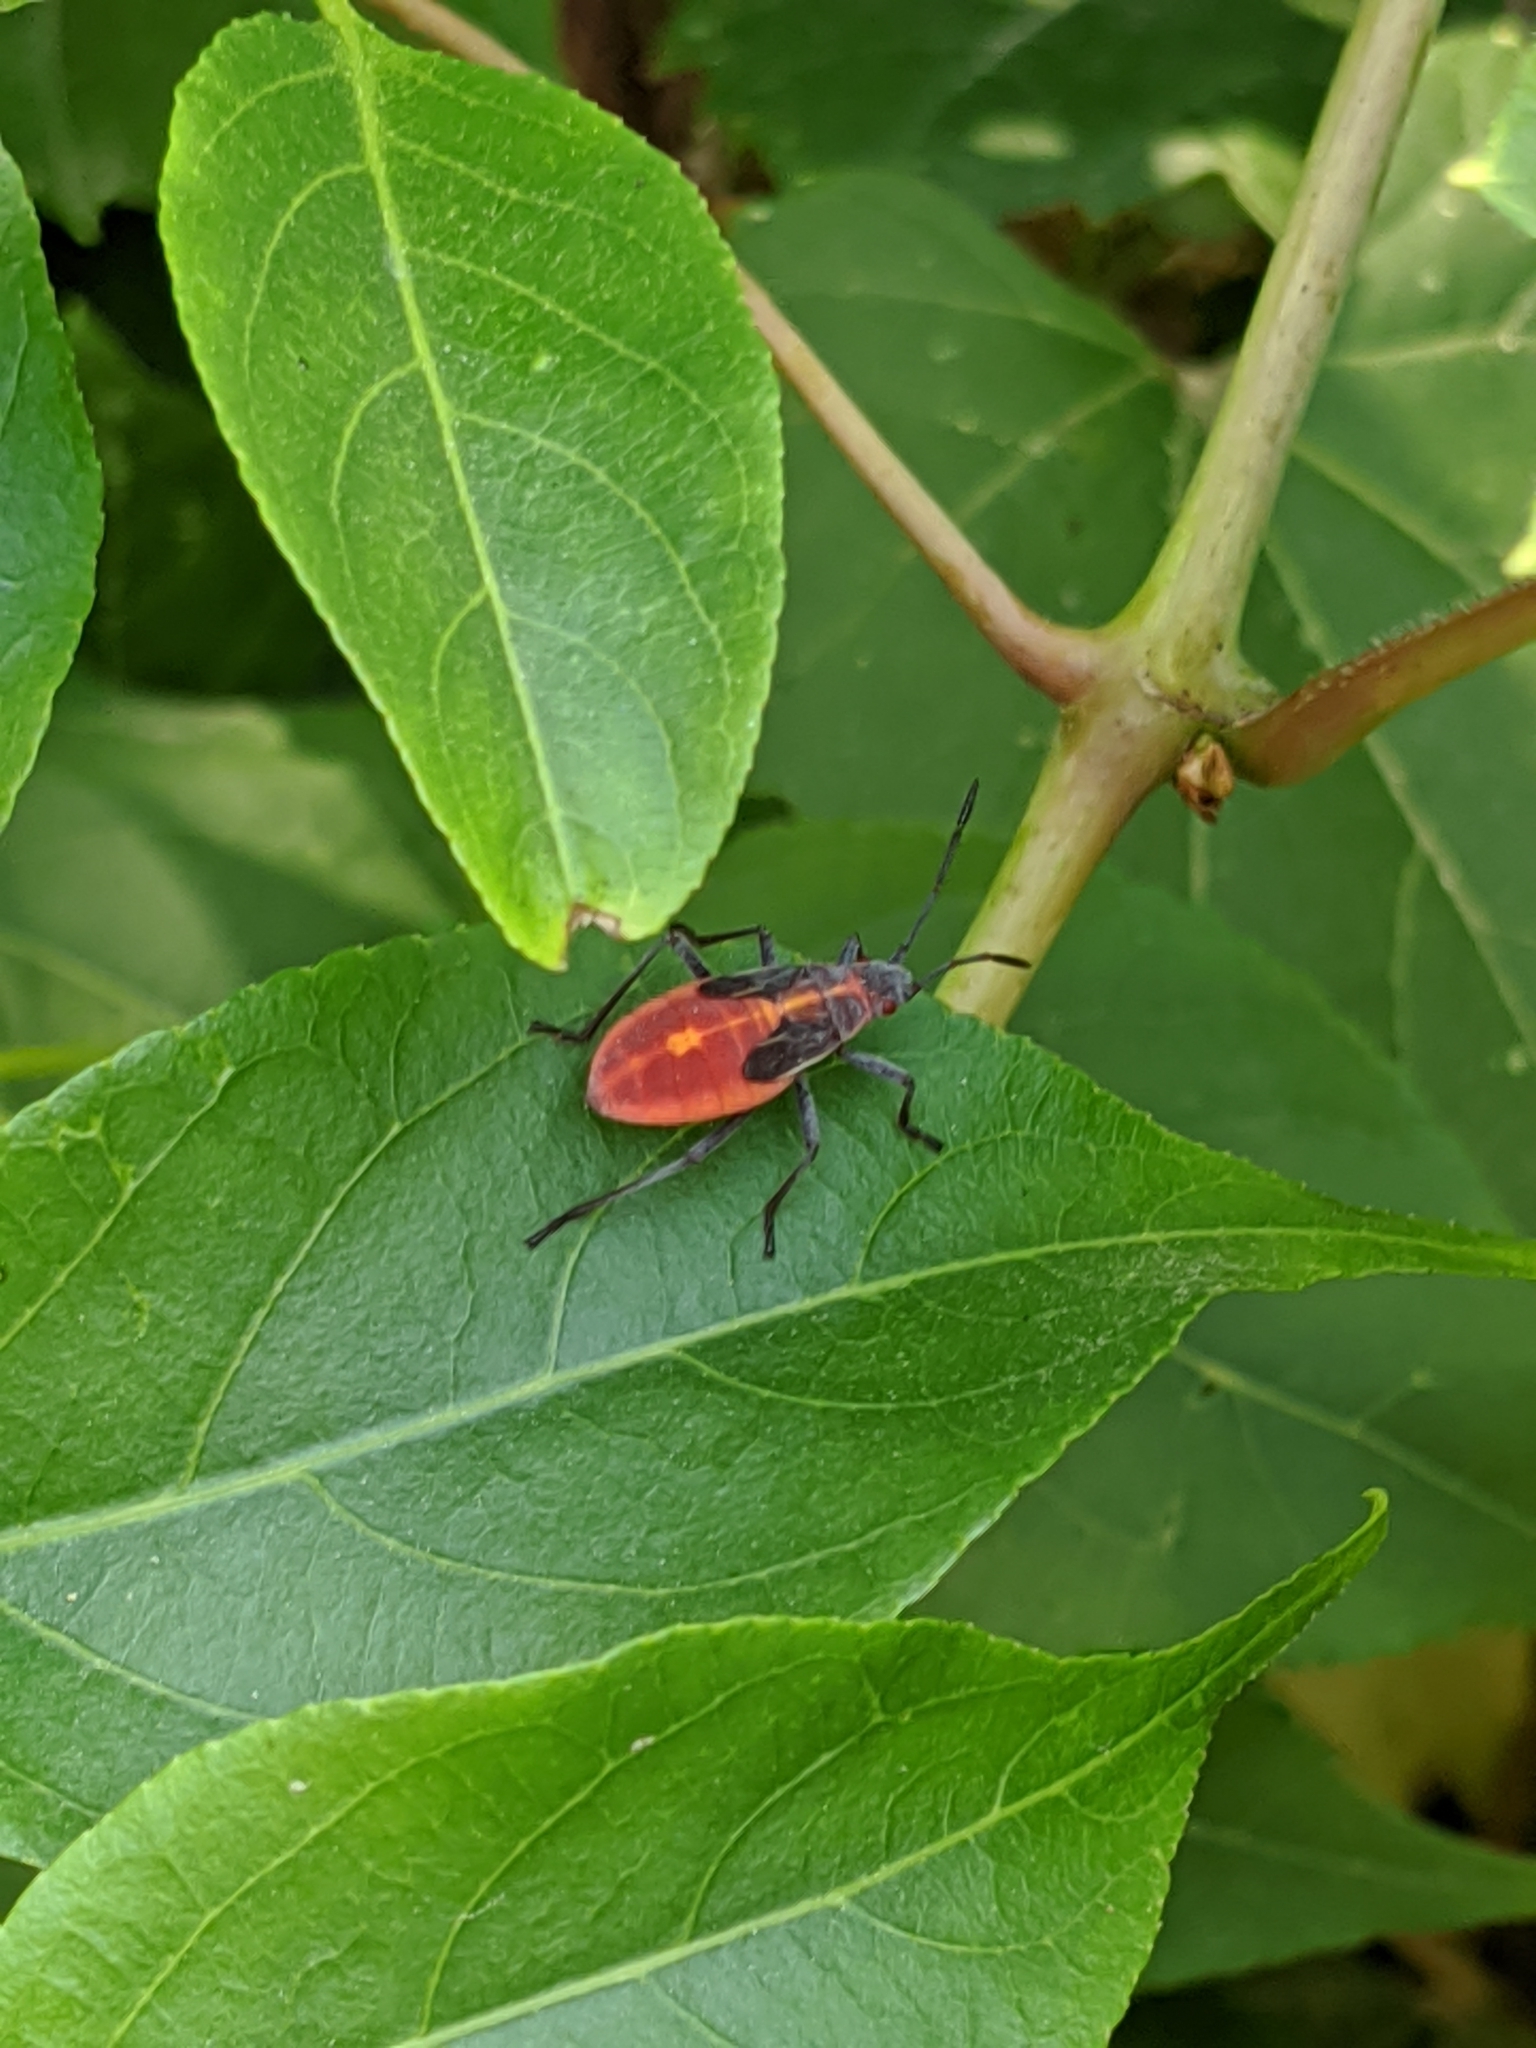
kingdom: Animalia
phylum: Arthropoda
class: Insecta
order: Hemiptera
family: Rhopalidae
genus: Boisea
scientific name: Boisea trivittata
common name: Boxelder bug
